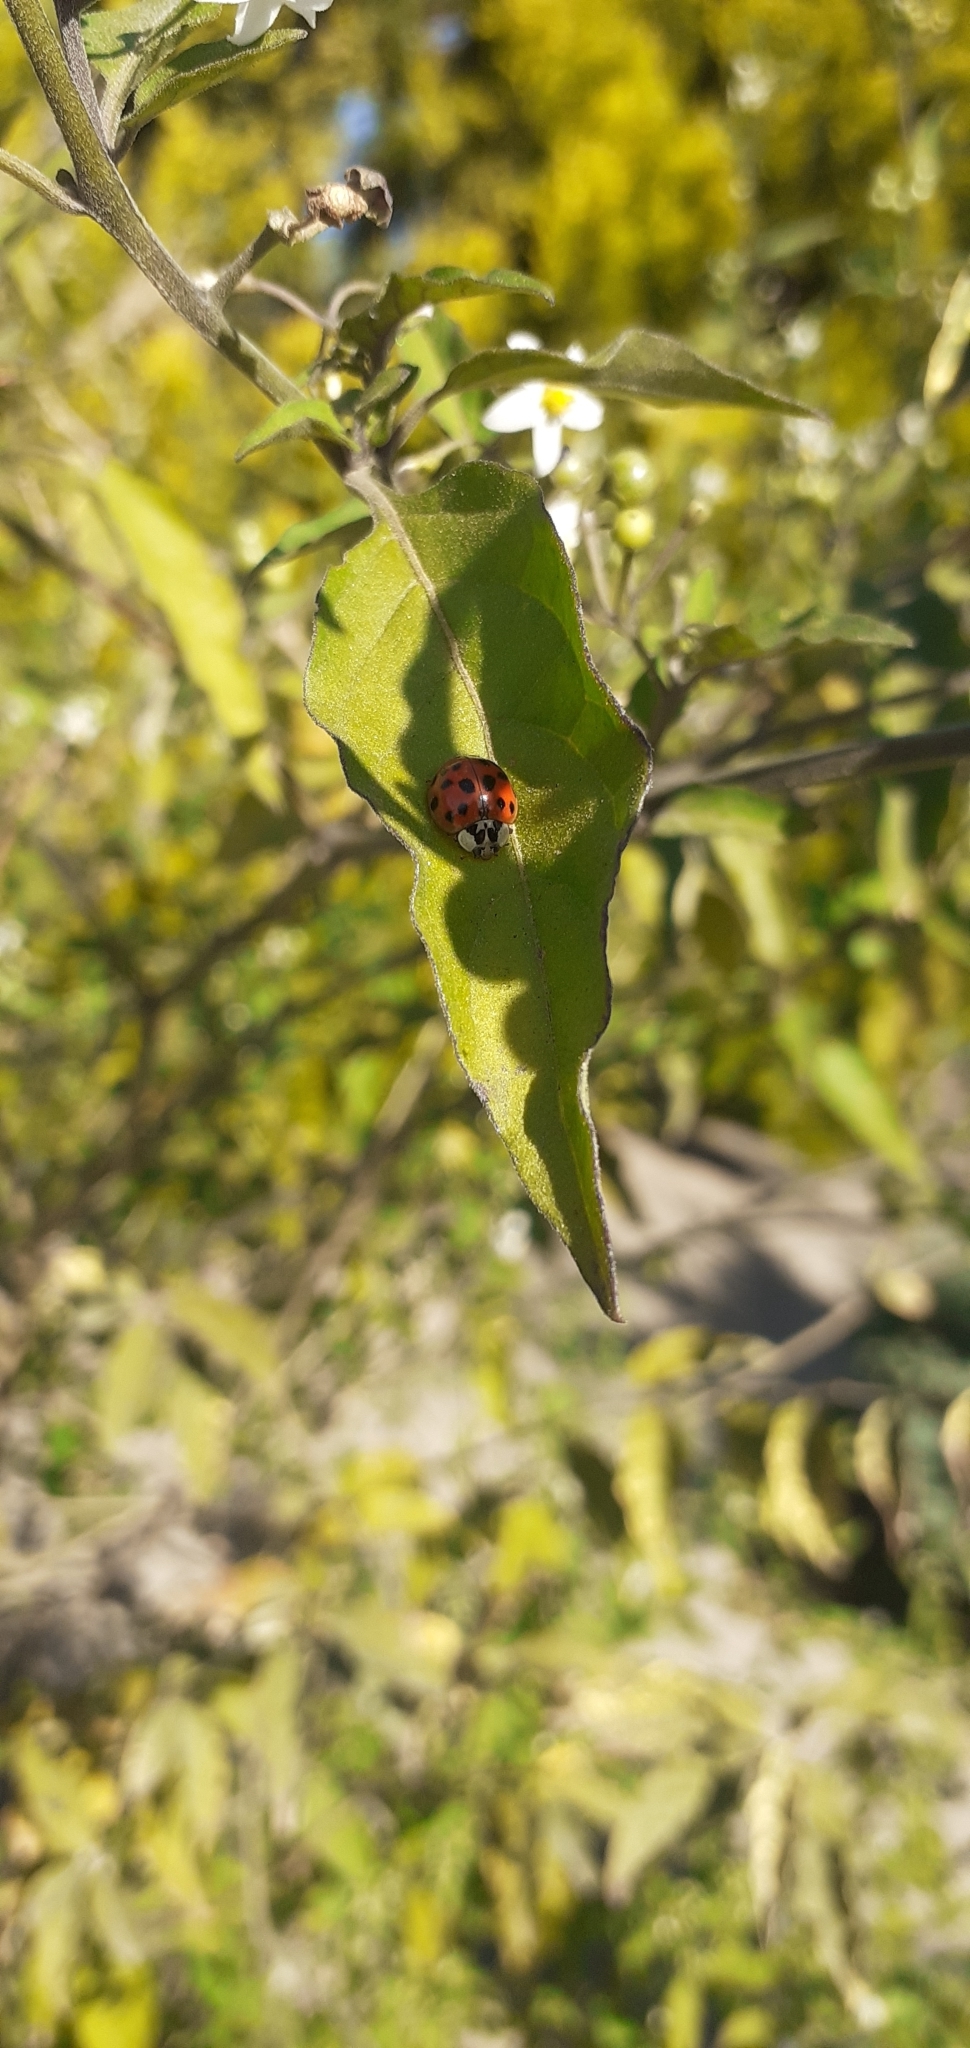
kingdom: Animalia
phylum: Arthropoda
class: Insecta
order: Coleoptera
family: Coccinellidae
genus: Harmonia
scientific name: Harmonia axyridis
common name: Harlequin ladybird
